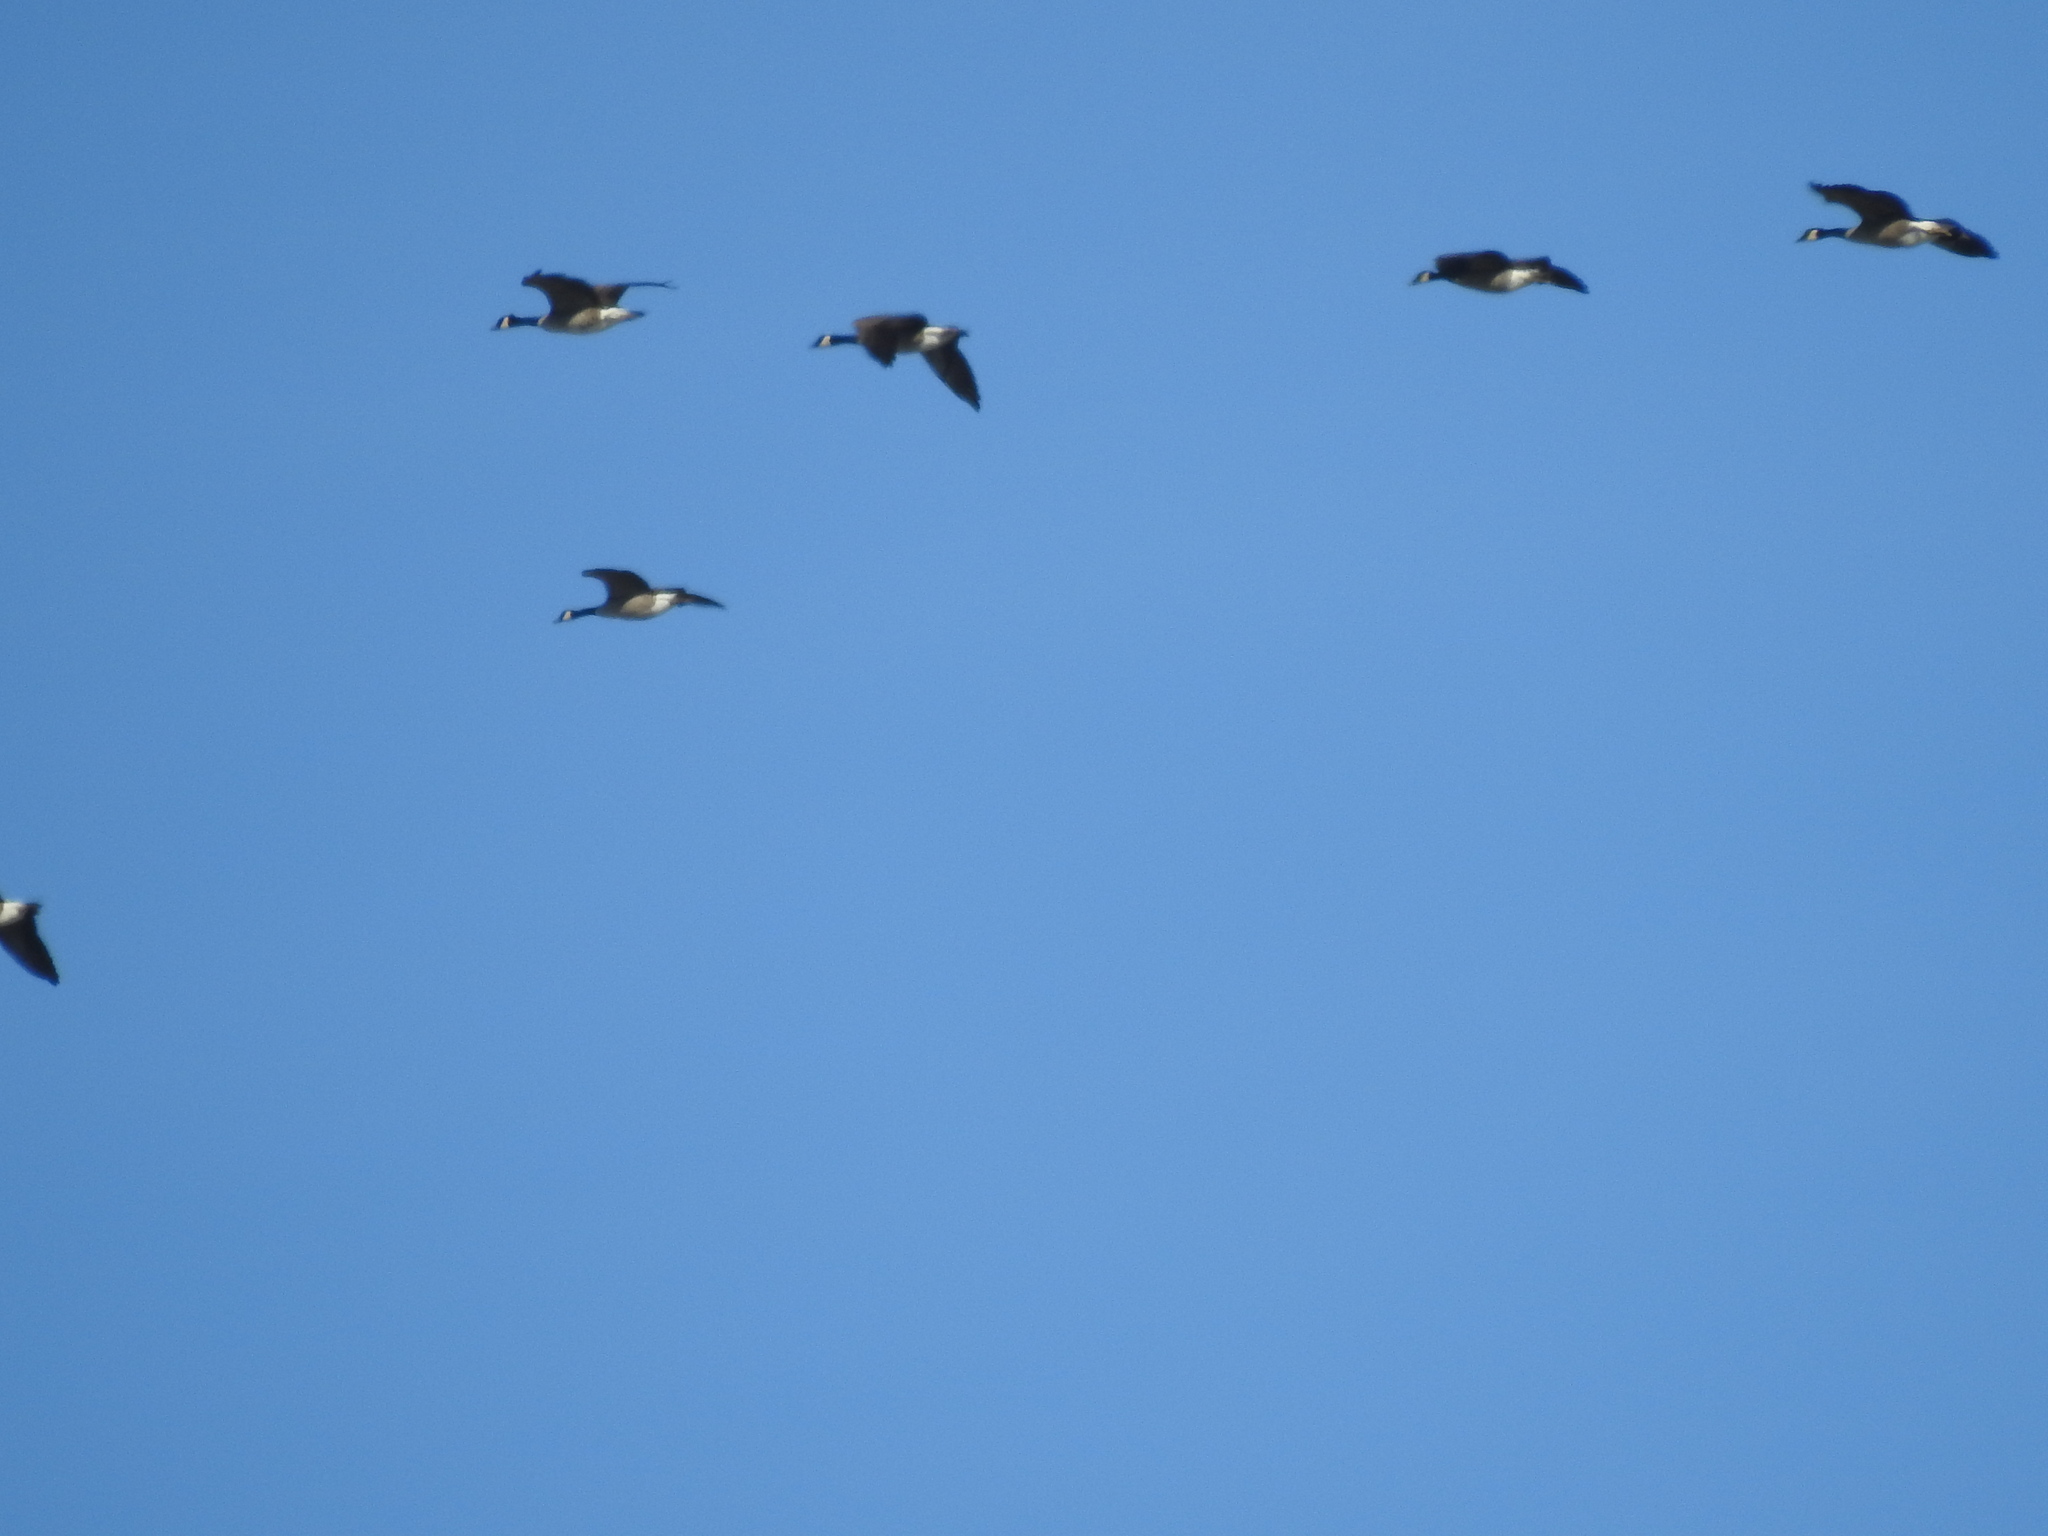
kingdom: Animalia
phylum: Chordata
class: Aves
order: Anseriformes
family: Anatidae
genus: Branta
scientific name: Branta canadensis
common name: Canada goose
